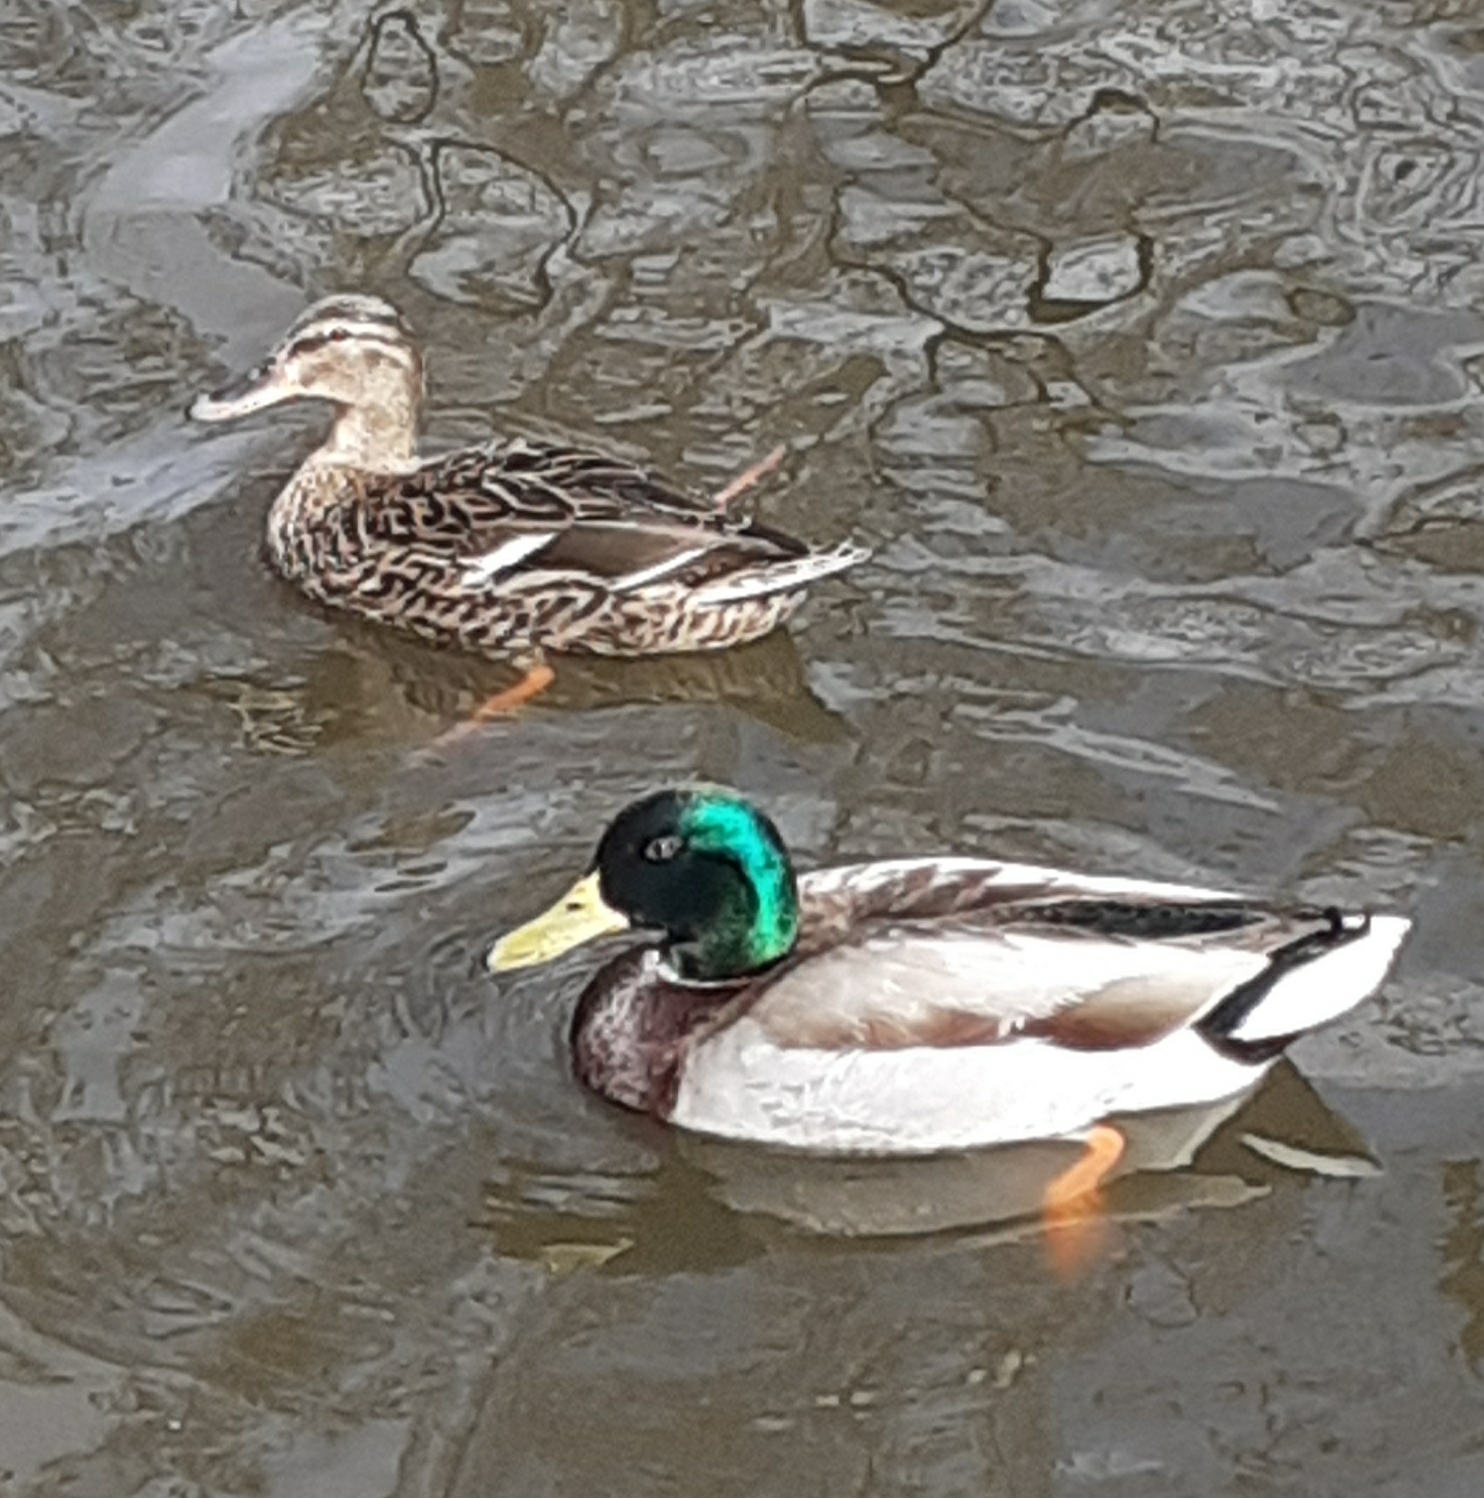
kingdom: Animalia
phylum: Chordata
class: Aves
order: Anseriformes
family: Anatidae
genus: Anas
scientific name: Anas platyrhynchos
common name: Mallard
